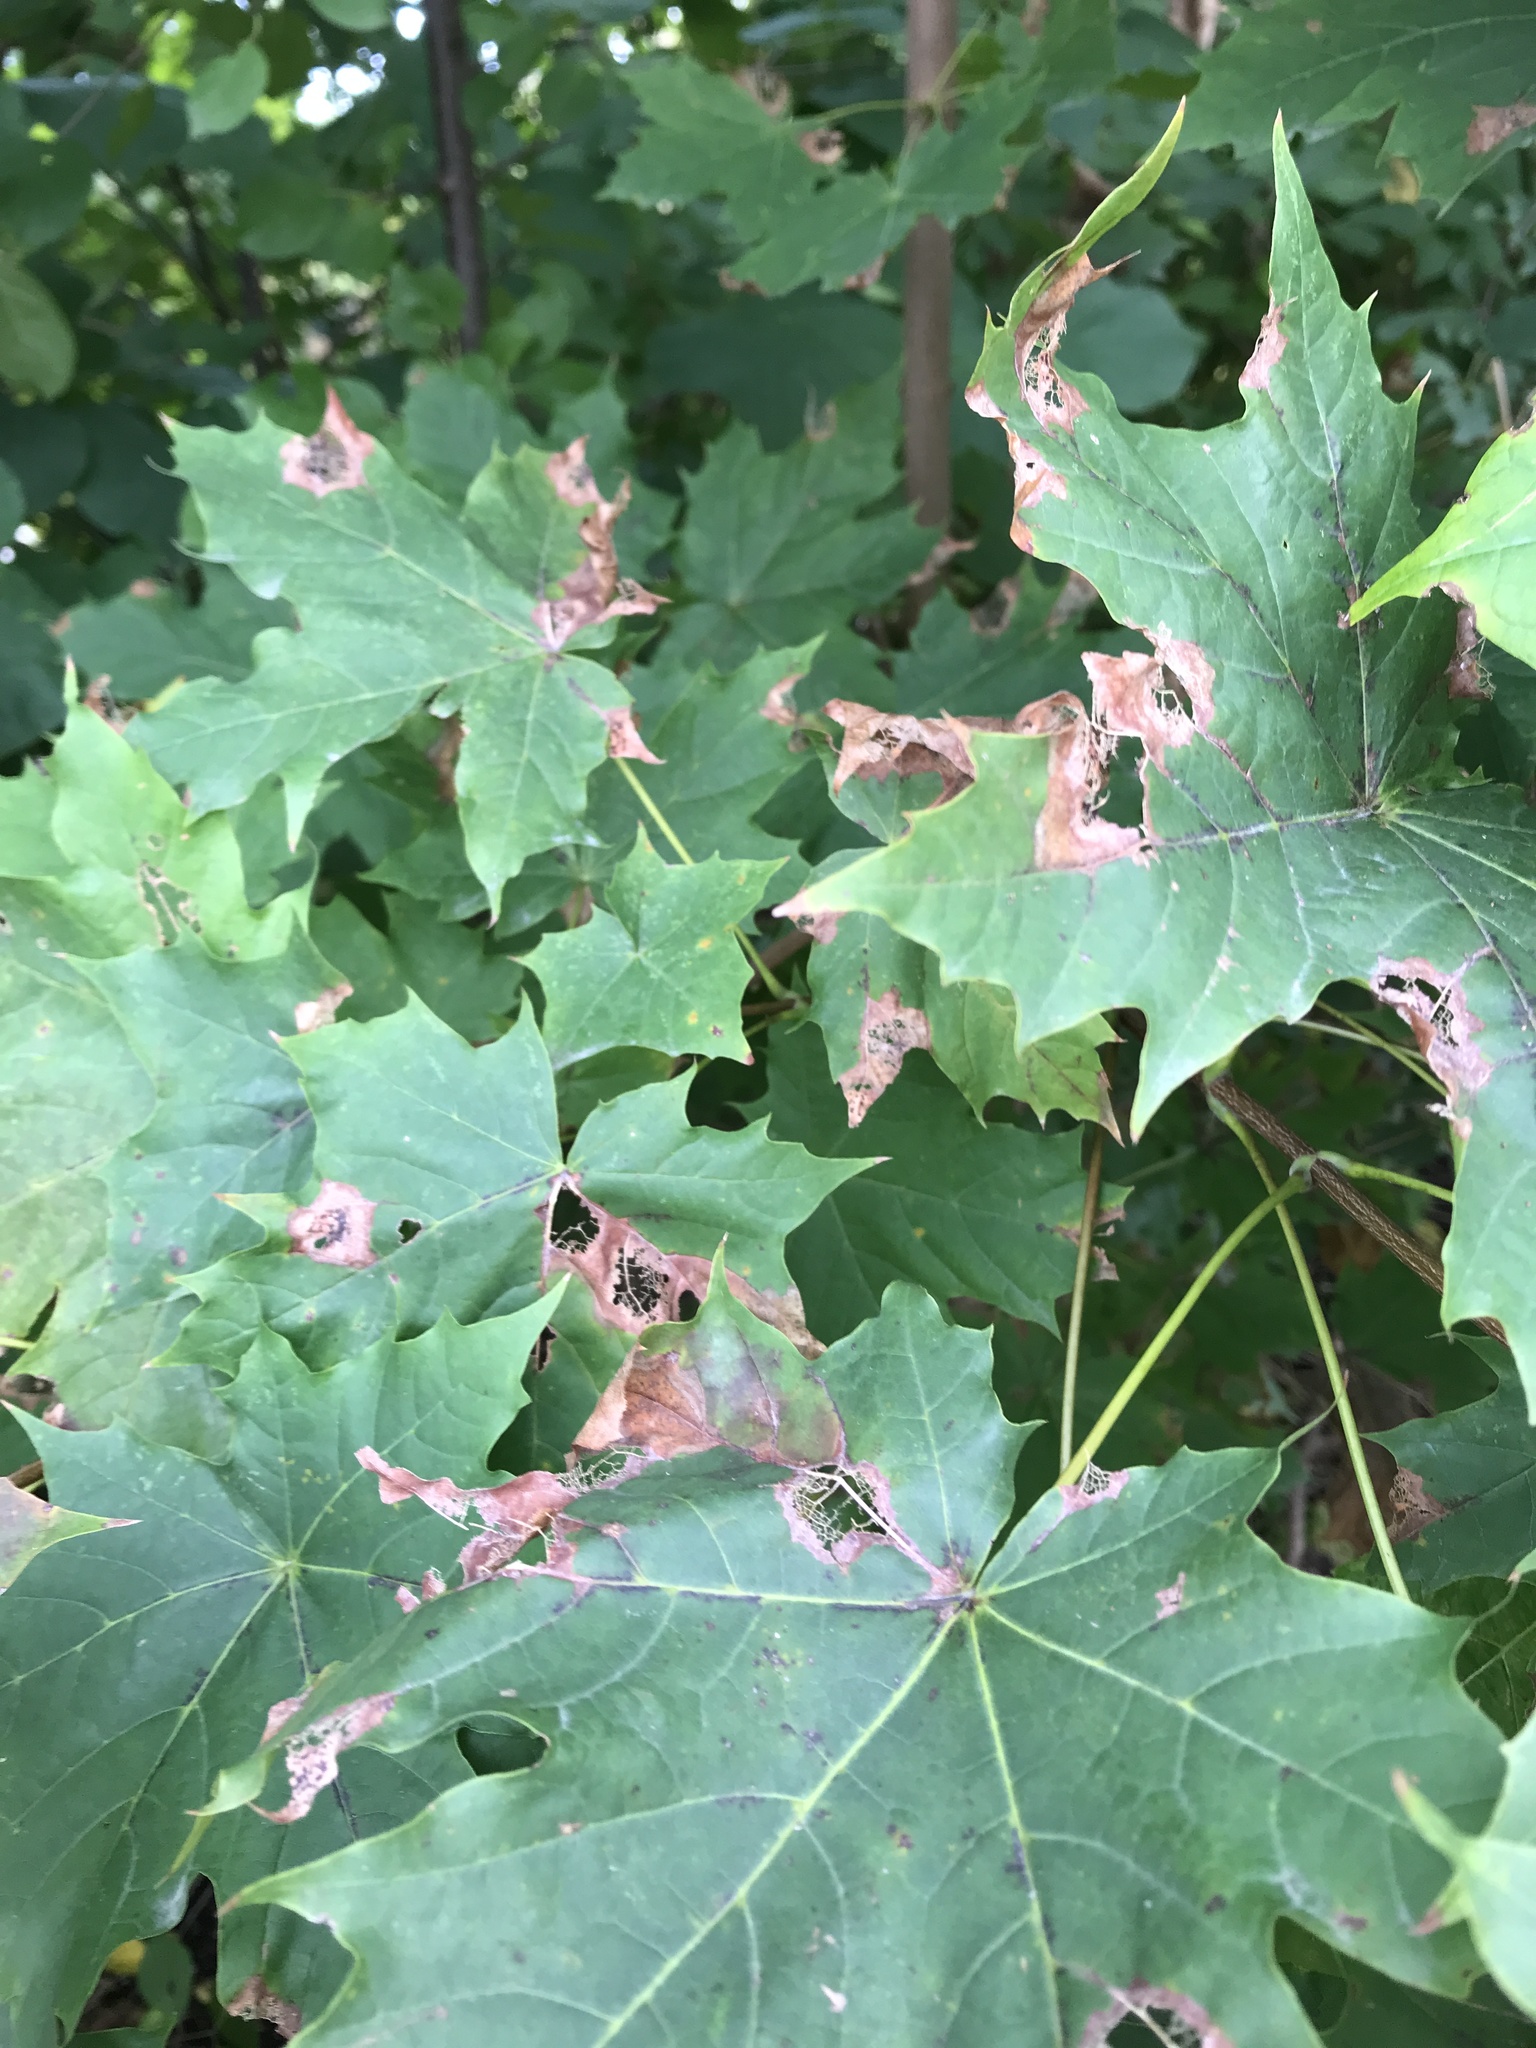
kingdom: Plantae
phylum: Tracheophyta
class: Magnoliopsida
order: Sapindales
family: Sapindaceae
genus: Acer
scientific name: Acer platanoides
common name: Norway maple
